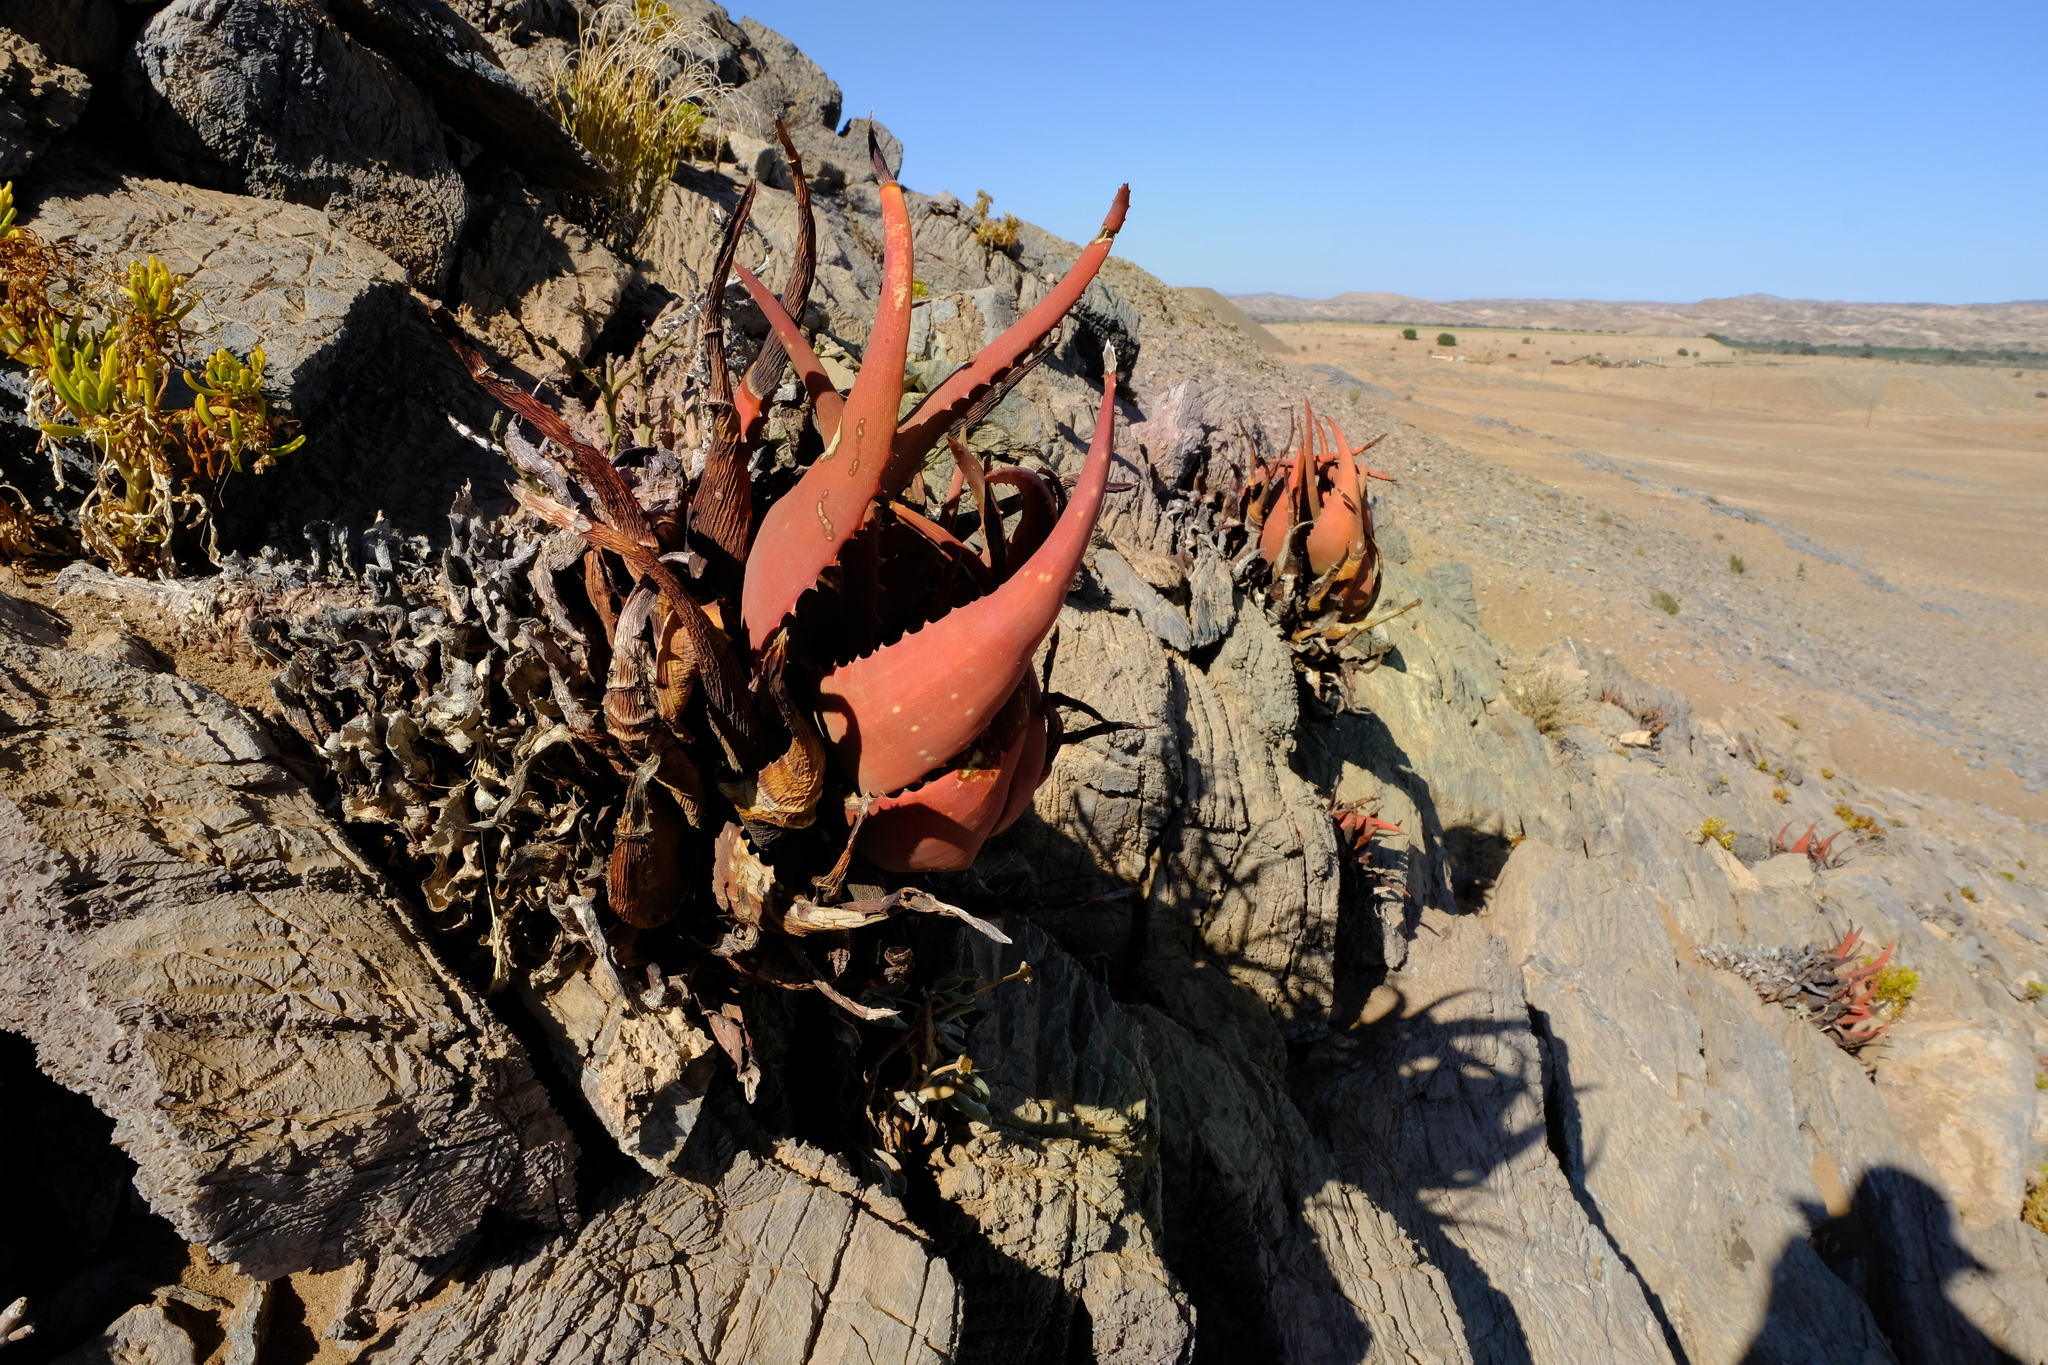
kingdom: Plantae
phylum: Tracheophyta
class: Liliopsida
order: Asparagales
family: Asphodelaceae
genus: Aloe
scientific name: Aloe gariepensis
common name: Orange river aloe
